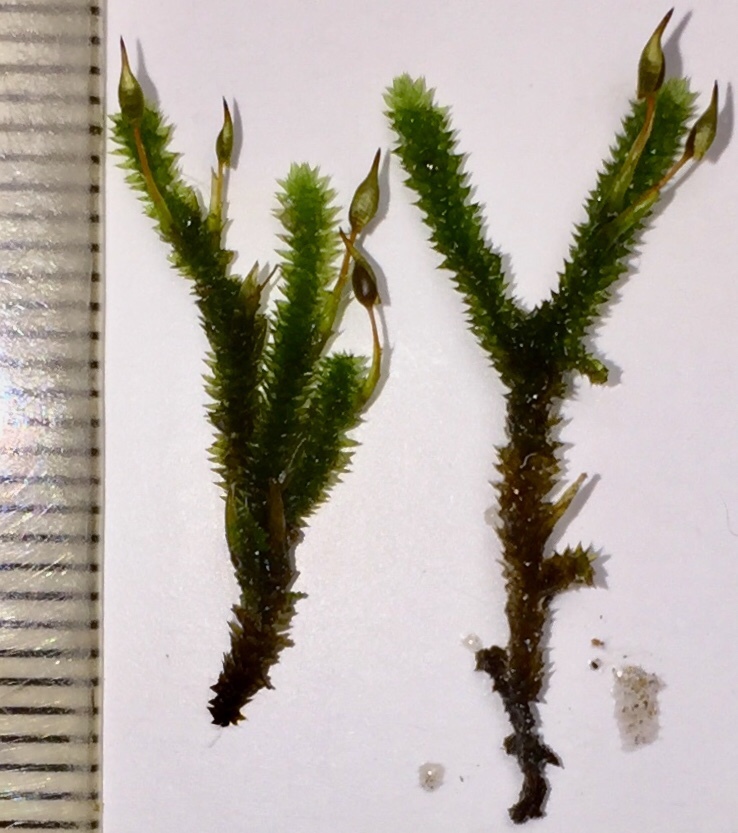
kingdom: Plantae
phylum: Bryophyta
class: Bryopsida
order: Hypnales
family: Leucodontaceae
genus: Leucodon
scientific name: Leucodon julaceus
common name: Smooth hook moss
